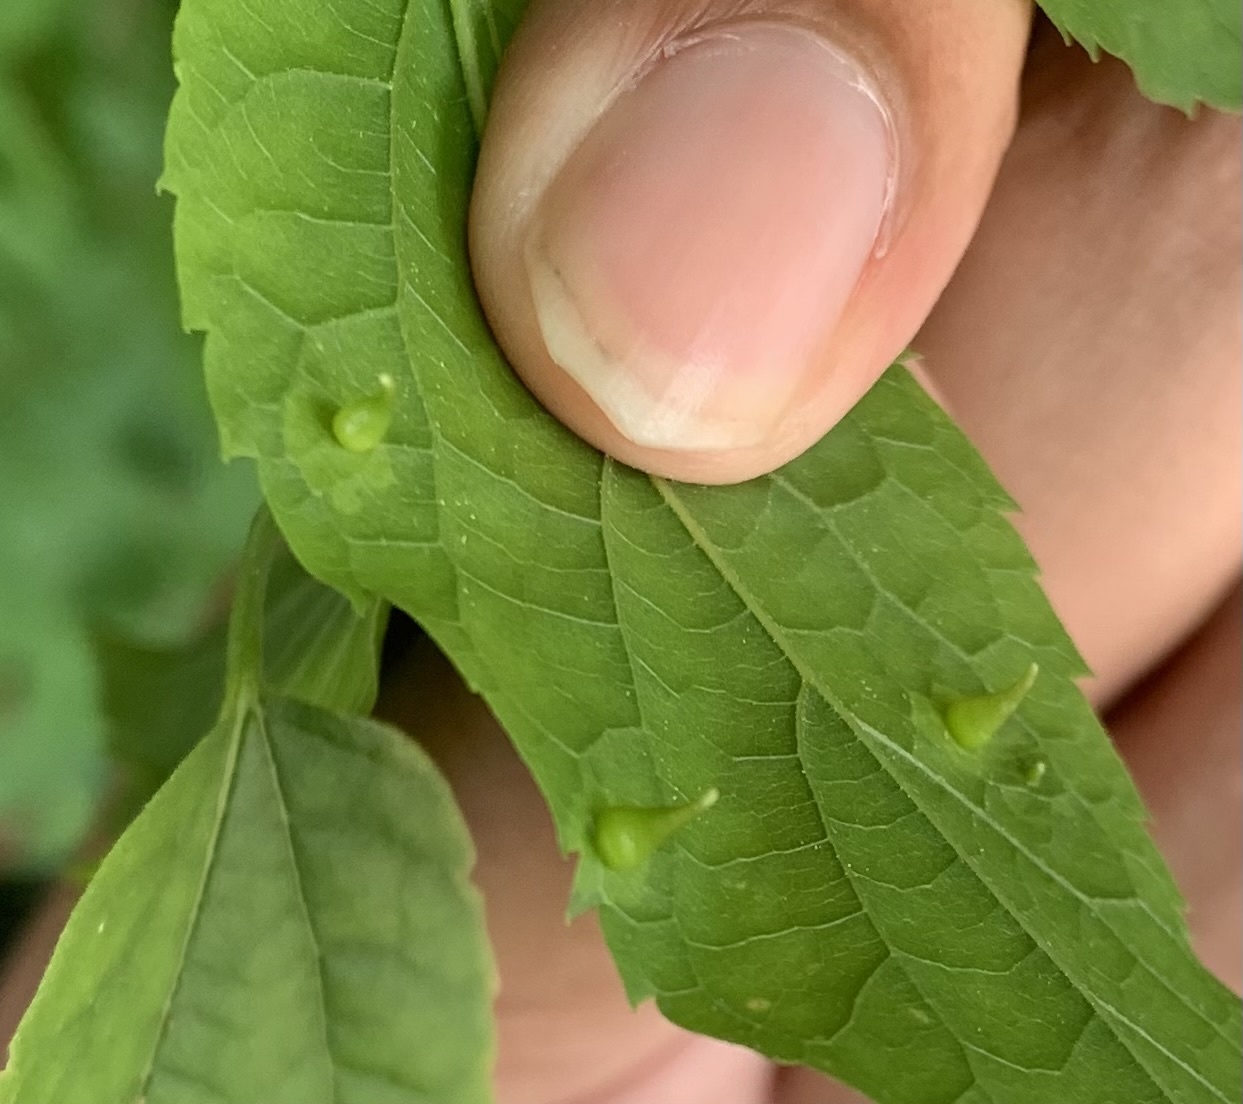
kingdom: Animalia
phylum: Arthropoda
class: Insecta
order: Diptera
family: Cecidomyiidae
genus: Celticecis
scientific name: Celticecis spiniformis
